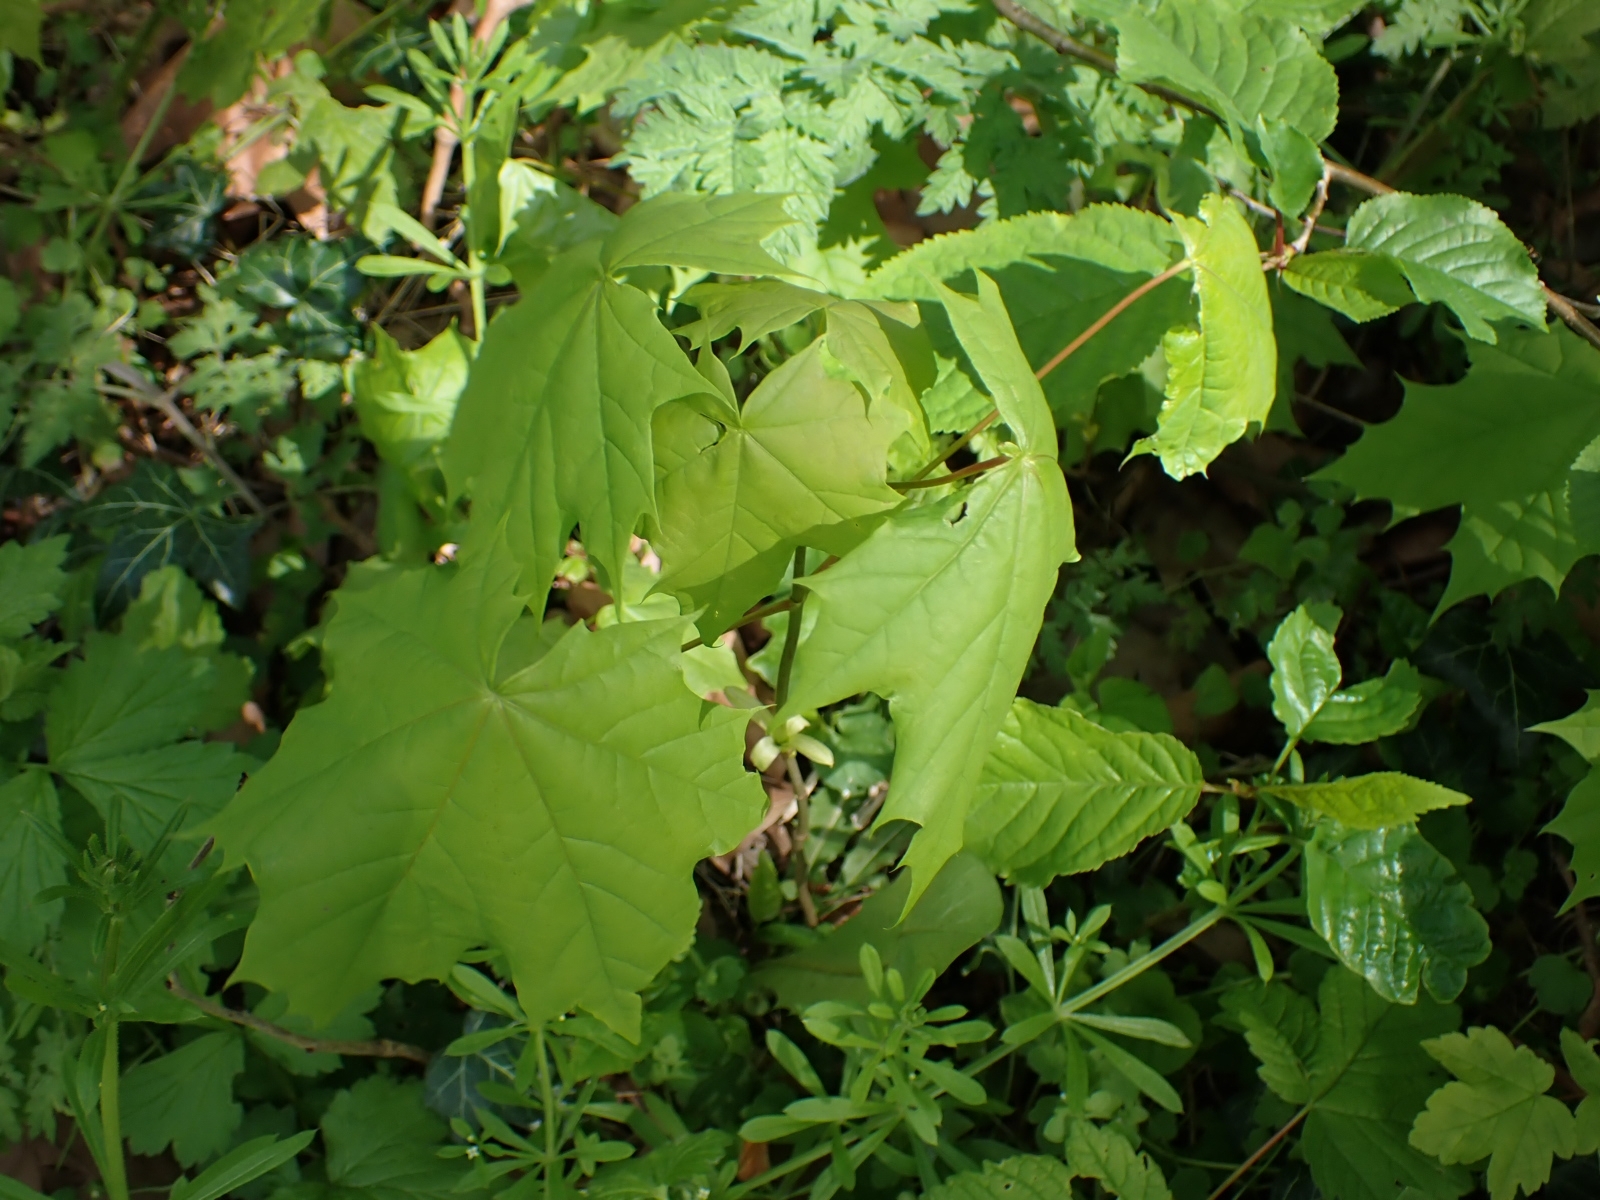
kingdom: Plantae
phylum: Tracheophyta
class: Magnoliopsida
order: Sapindales
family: Sapindaceae
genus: Acer
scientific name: Acer platanoides
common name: Norway maple
